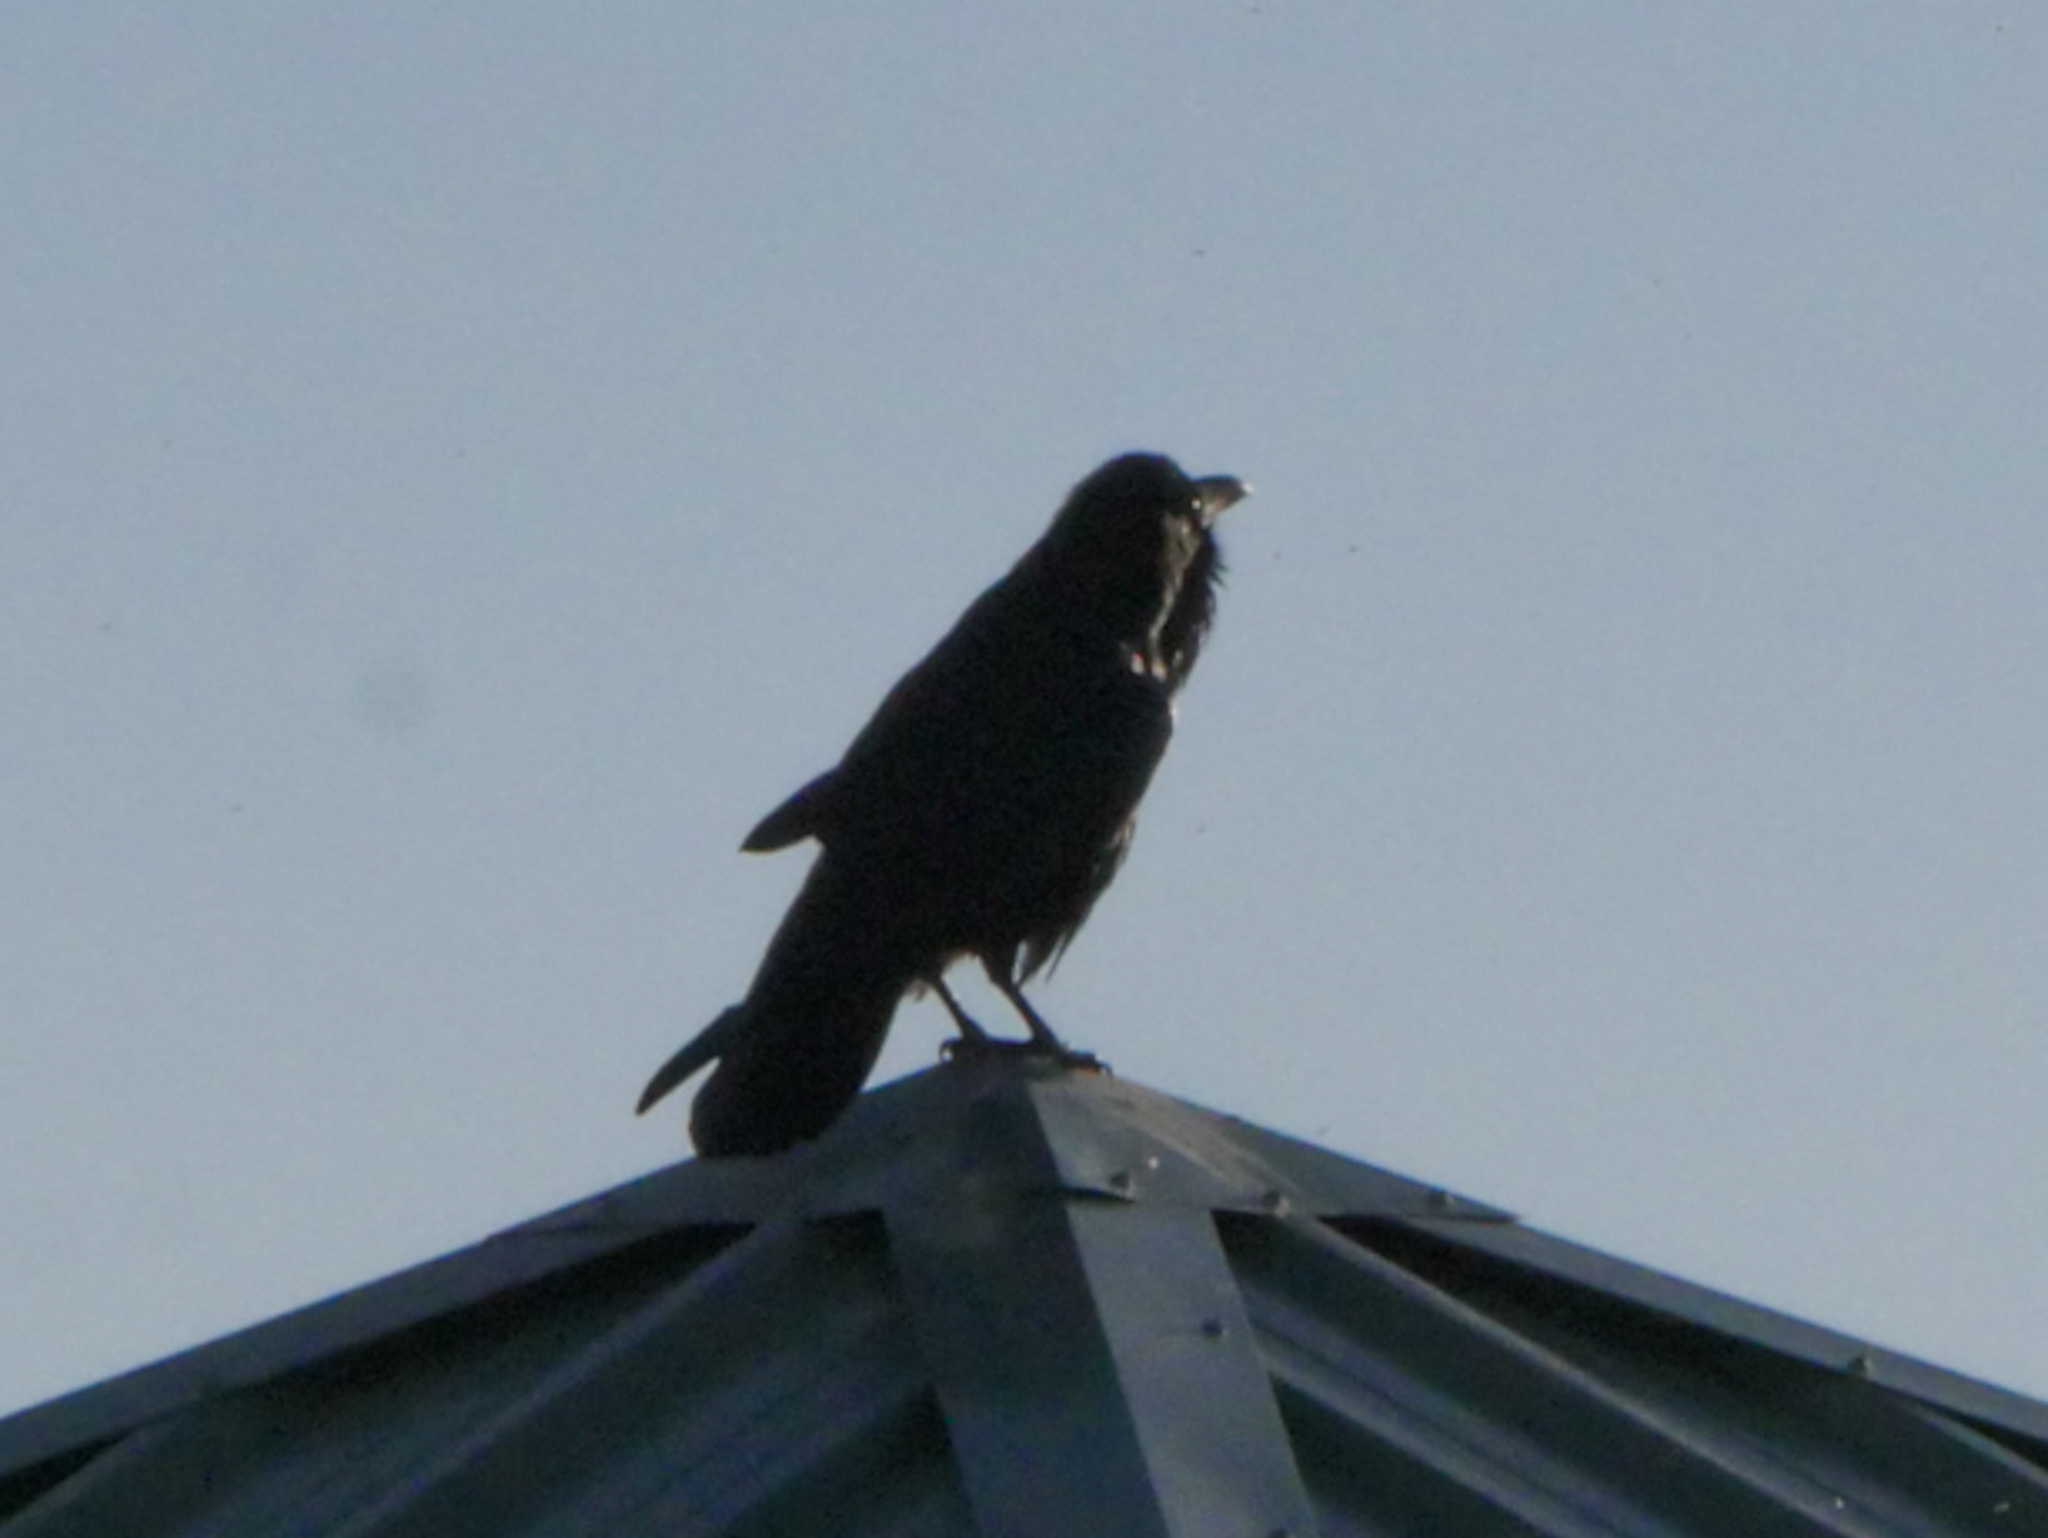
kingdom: Animalia
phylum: Chordata
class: Aves
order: Passeriformes
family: Corvidae
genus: Corvus
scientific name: Corvus corax
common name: Common raven
